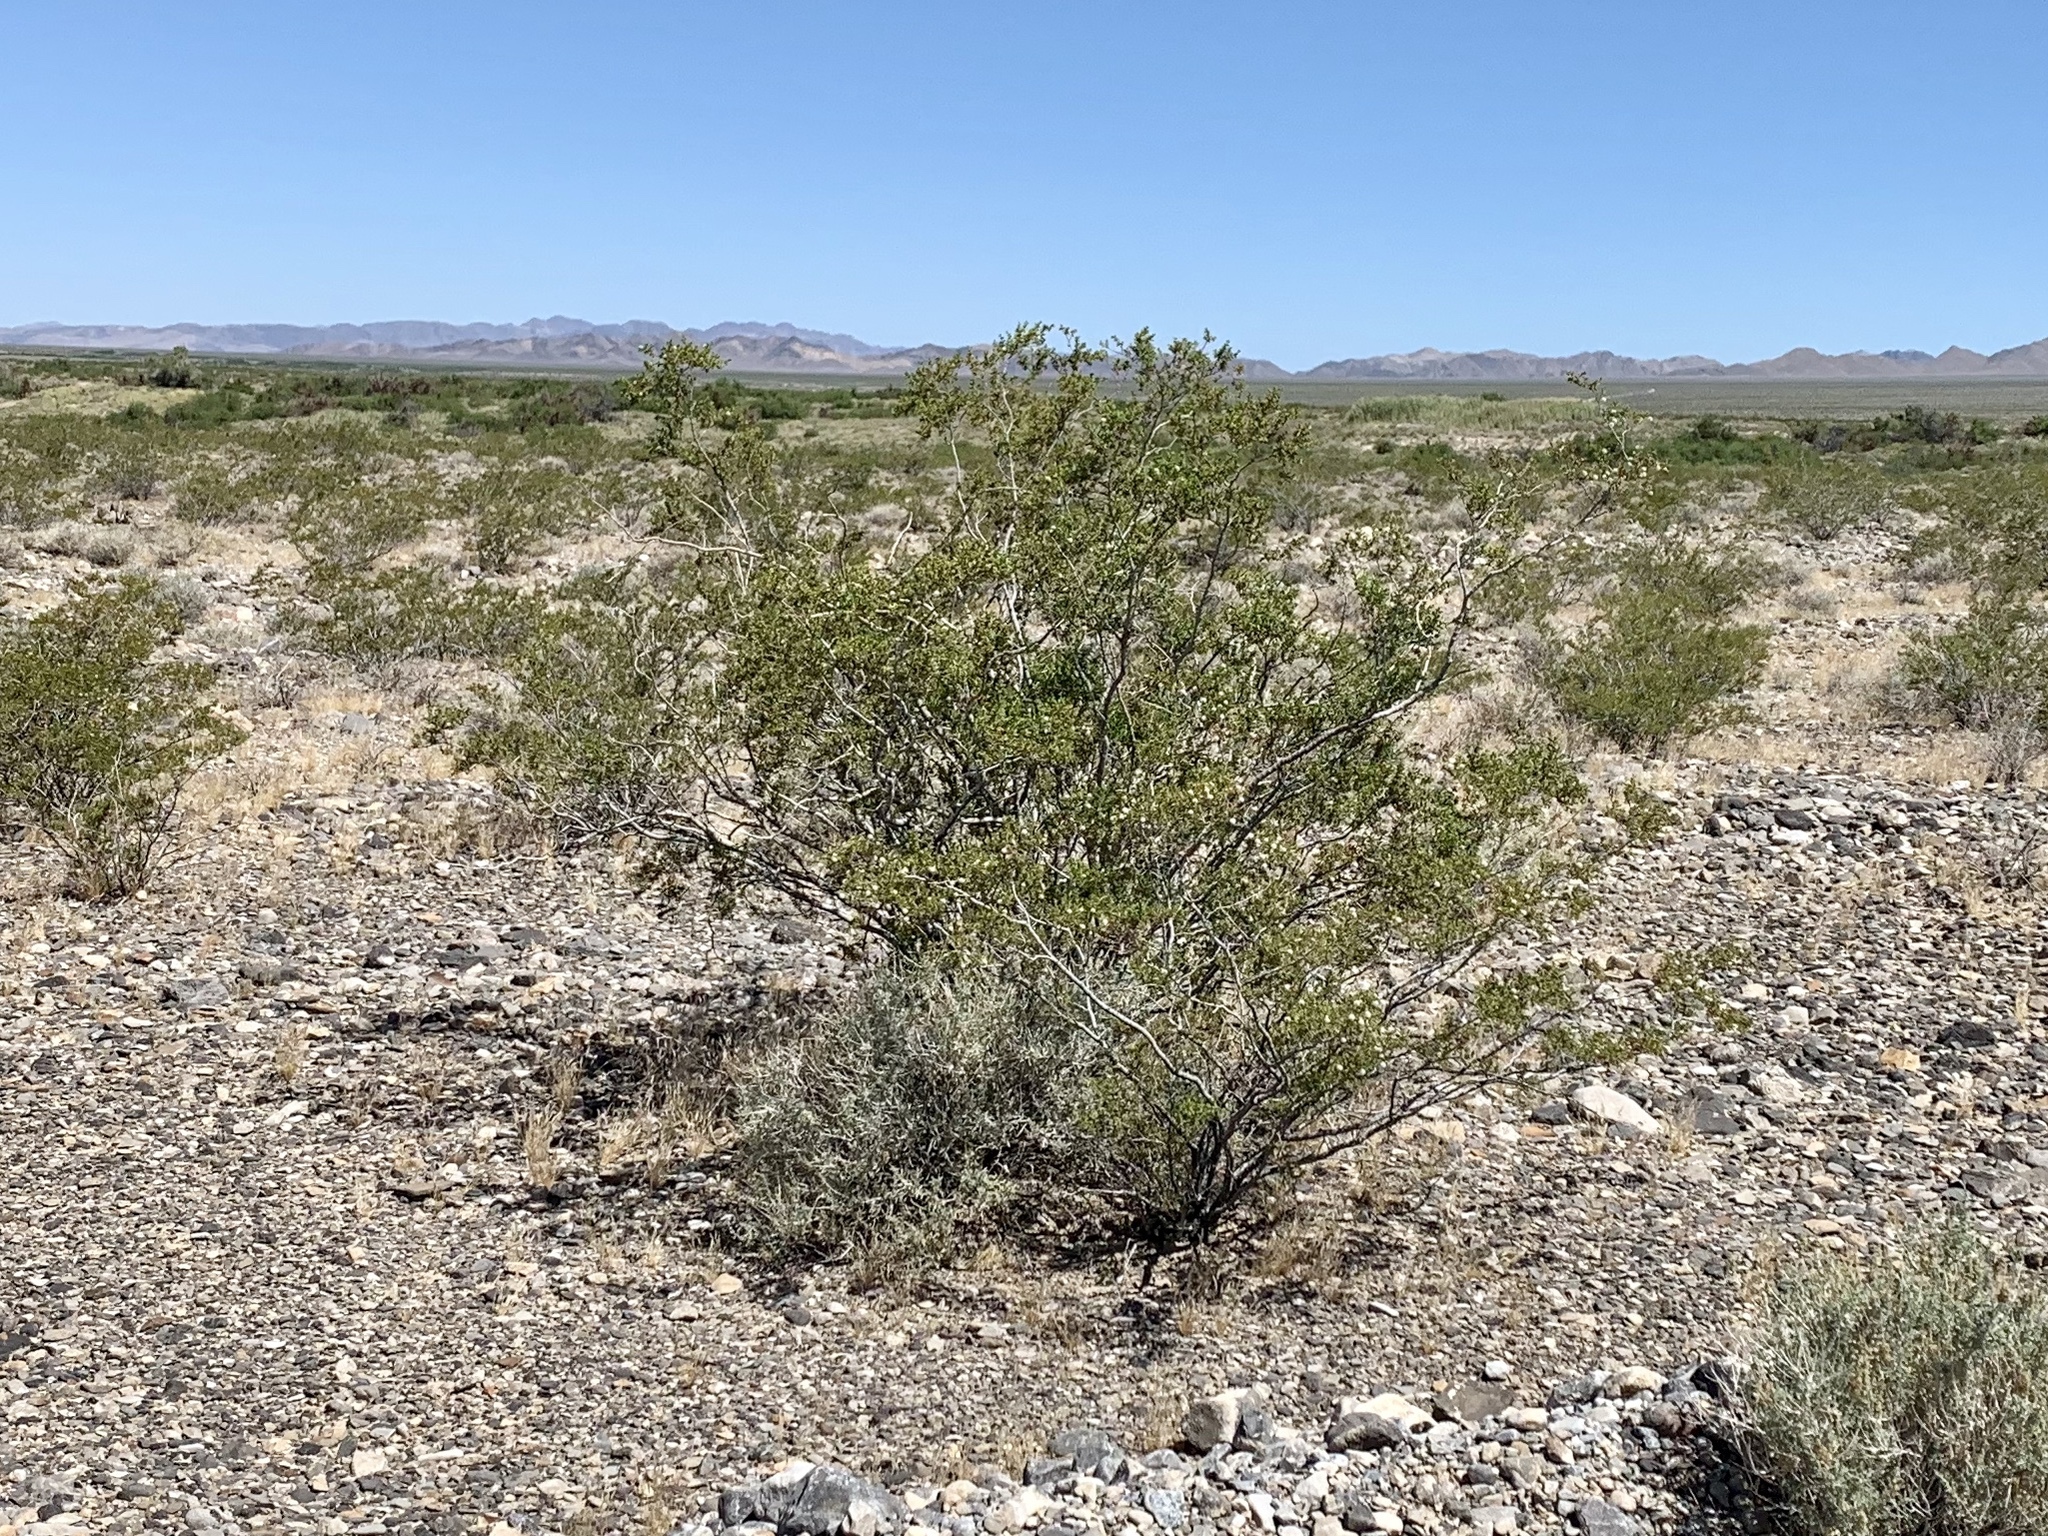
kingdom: Plantae
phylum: Tracheophyta
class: Magnoliopsida
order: Zygophyllales
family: Zygophyllaceae
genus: Larrea
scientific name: Larrea tridentata
